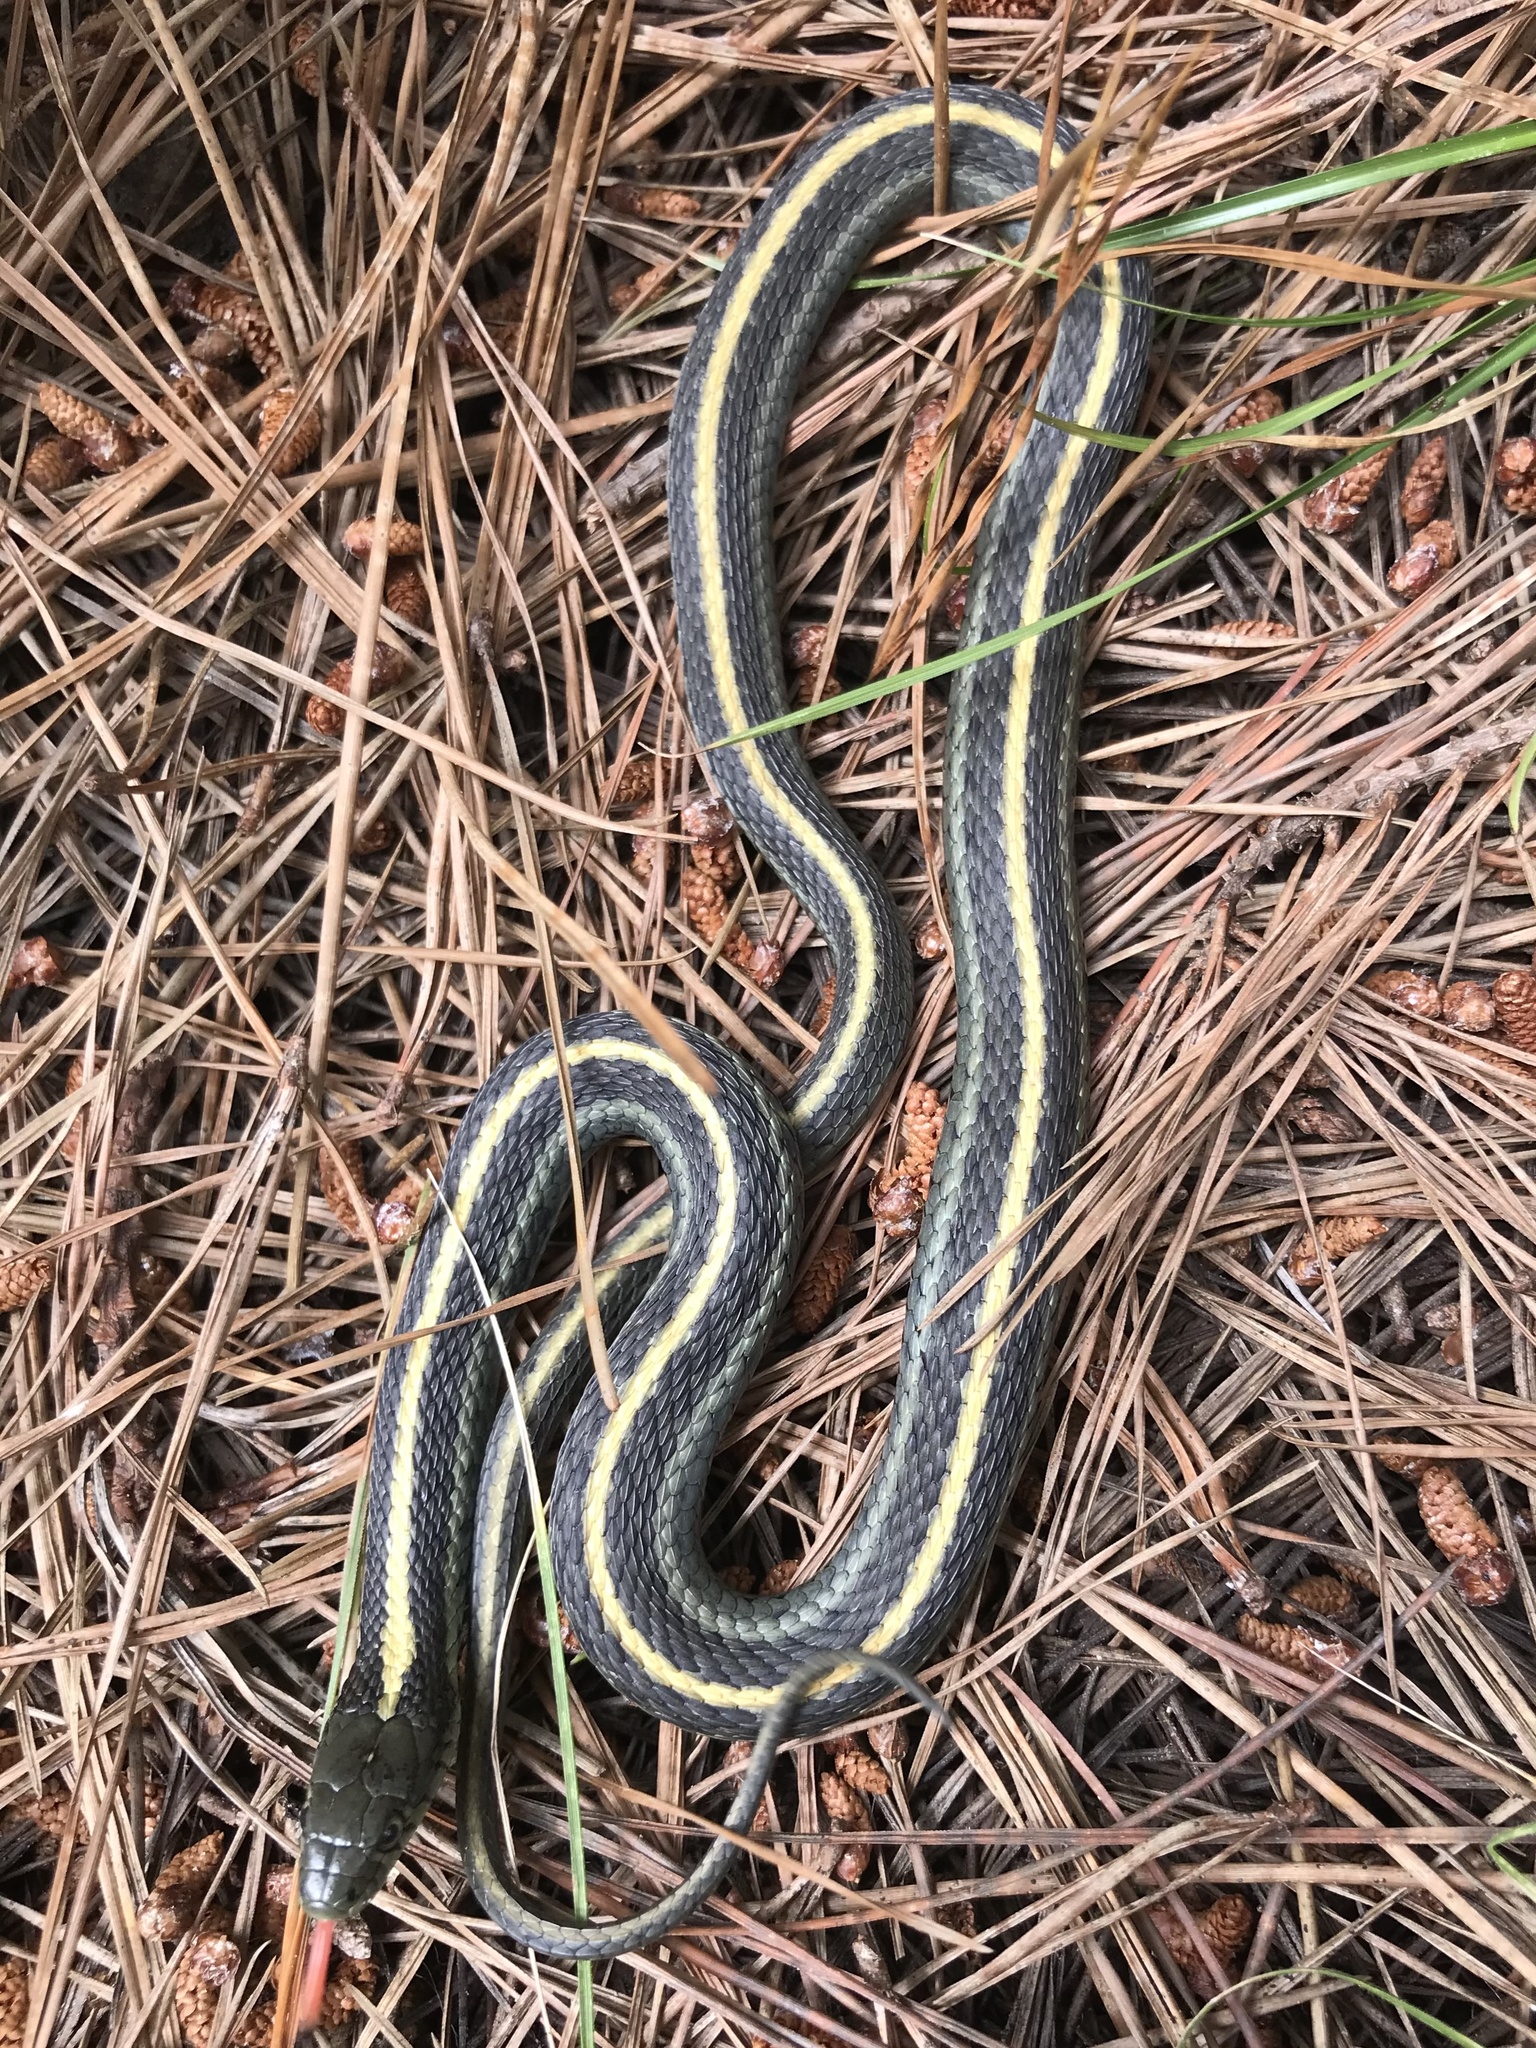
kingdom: Animalia
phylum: Chordata
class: Squamata
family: Colubridae
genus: Thamnophis
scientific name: Thamnophis atratus
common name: Pacific coast aquatic garter snake
